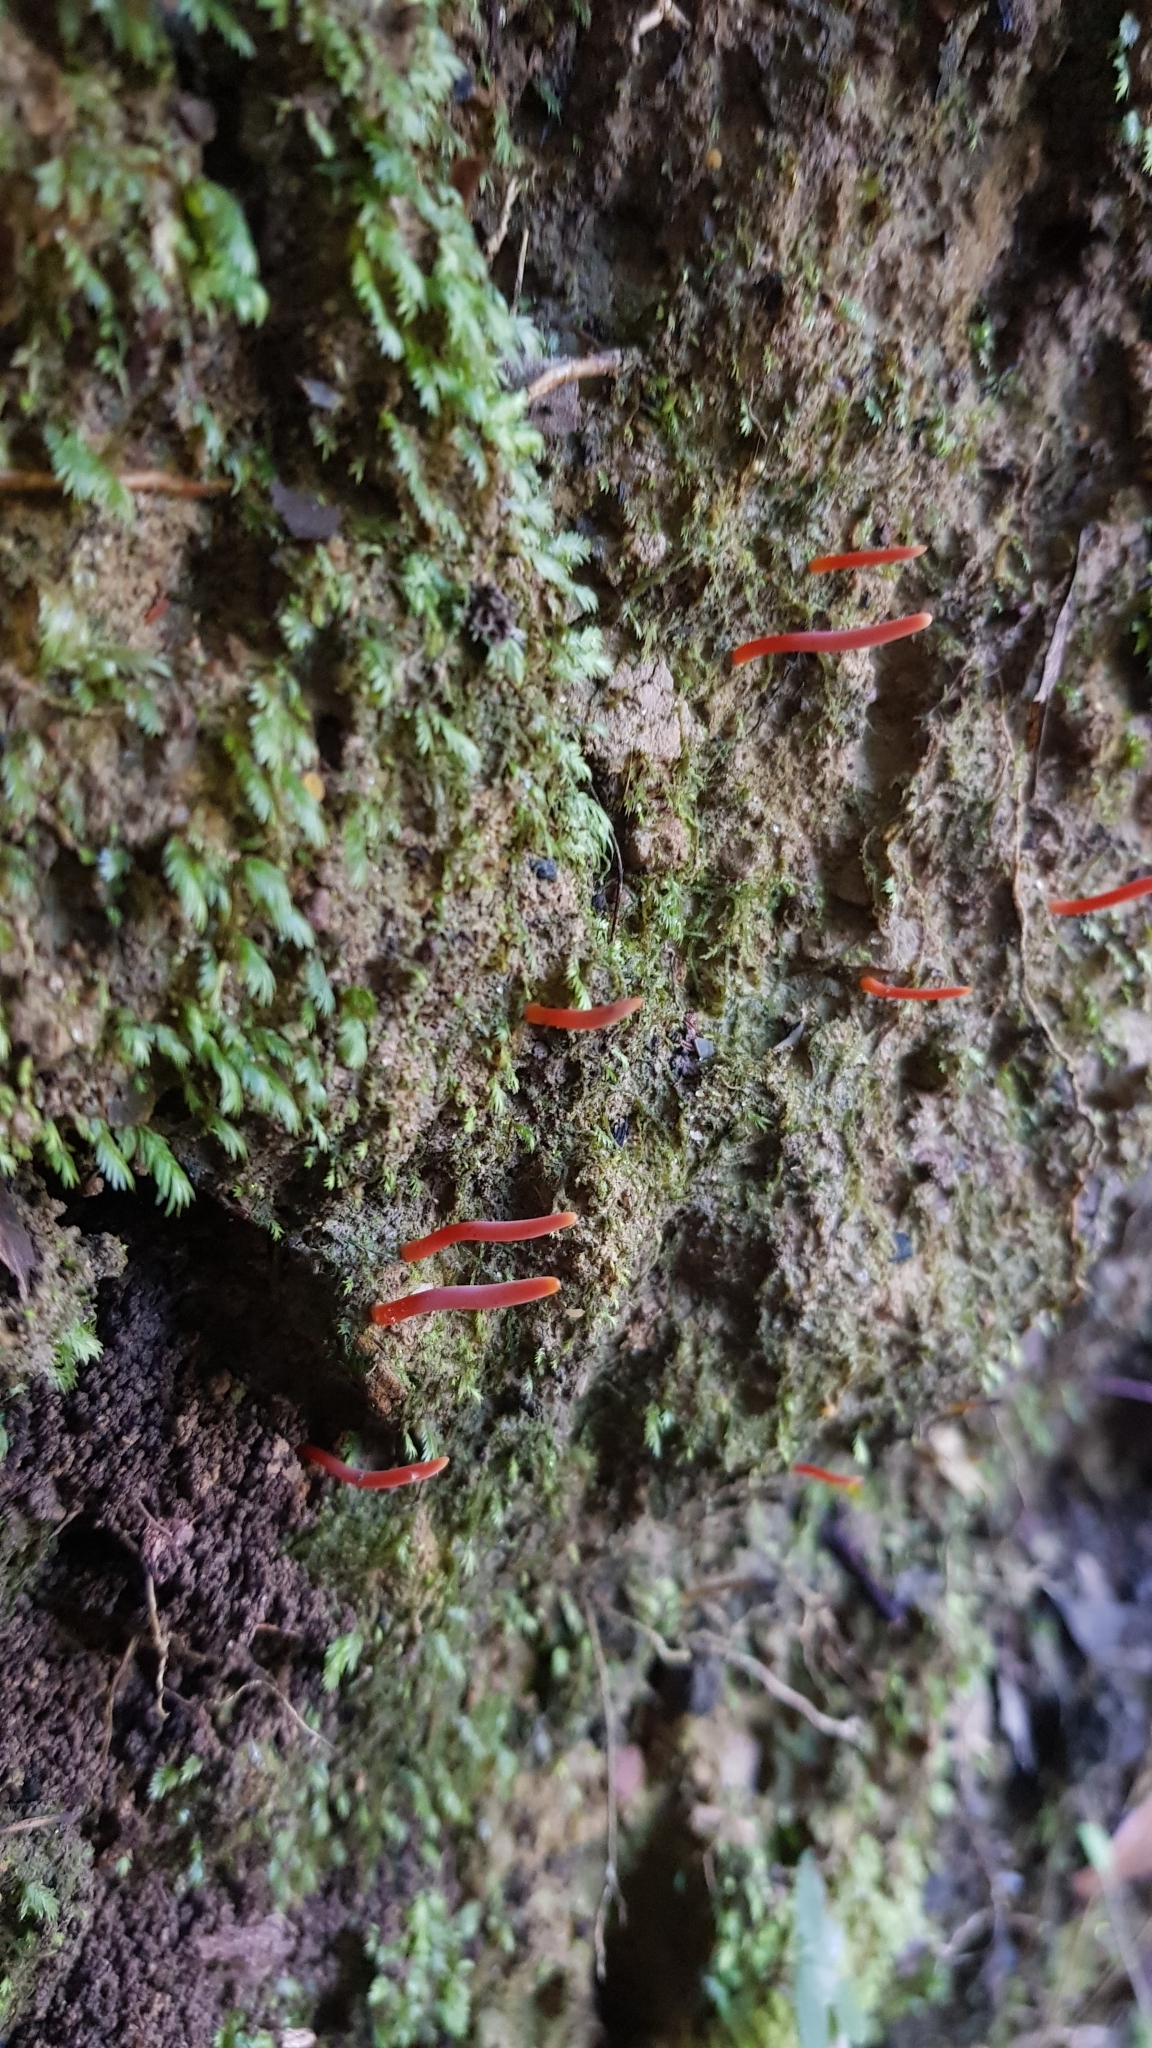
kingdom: Fungi
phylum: Basidiomycota
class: Agaricomycetes
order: Agaricales
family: Clavariaceae
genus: Clavulinopsis
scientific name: Clavulinopsis corallinorosacea
